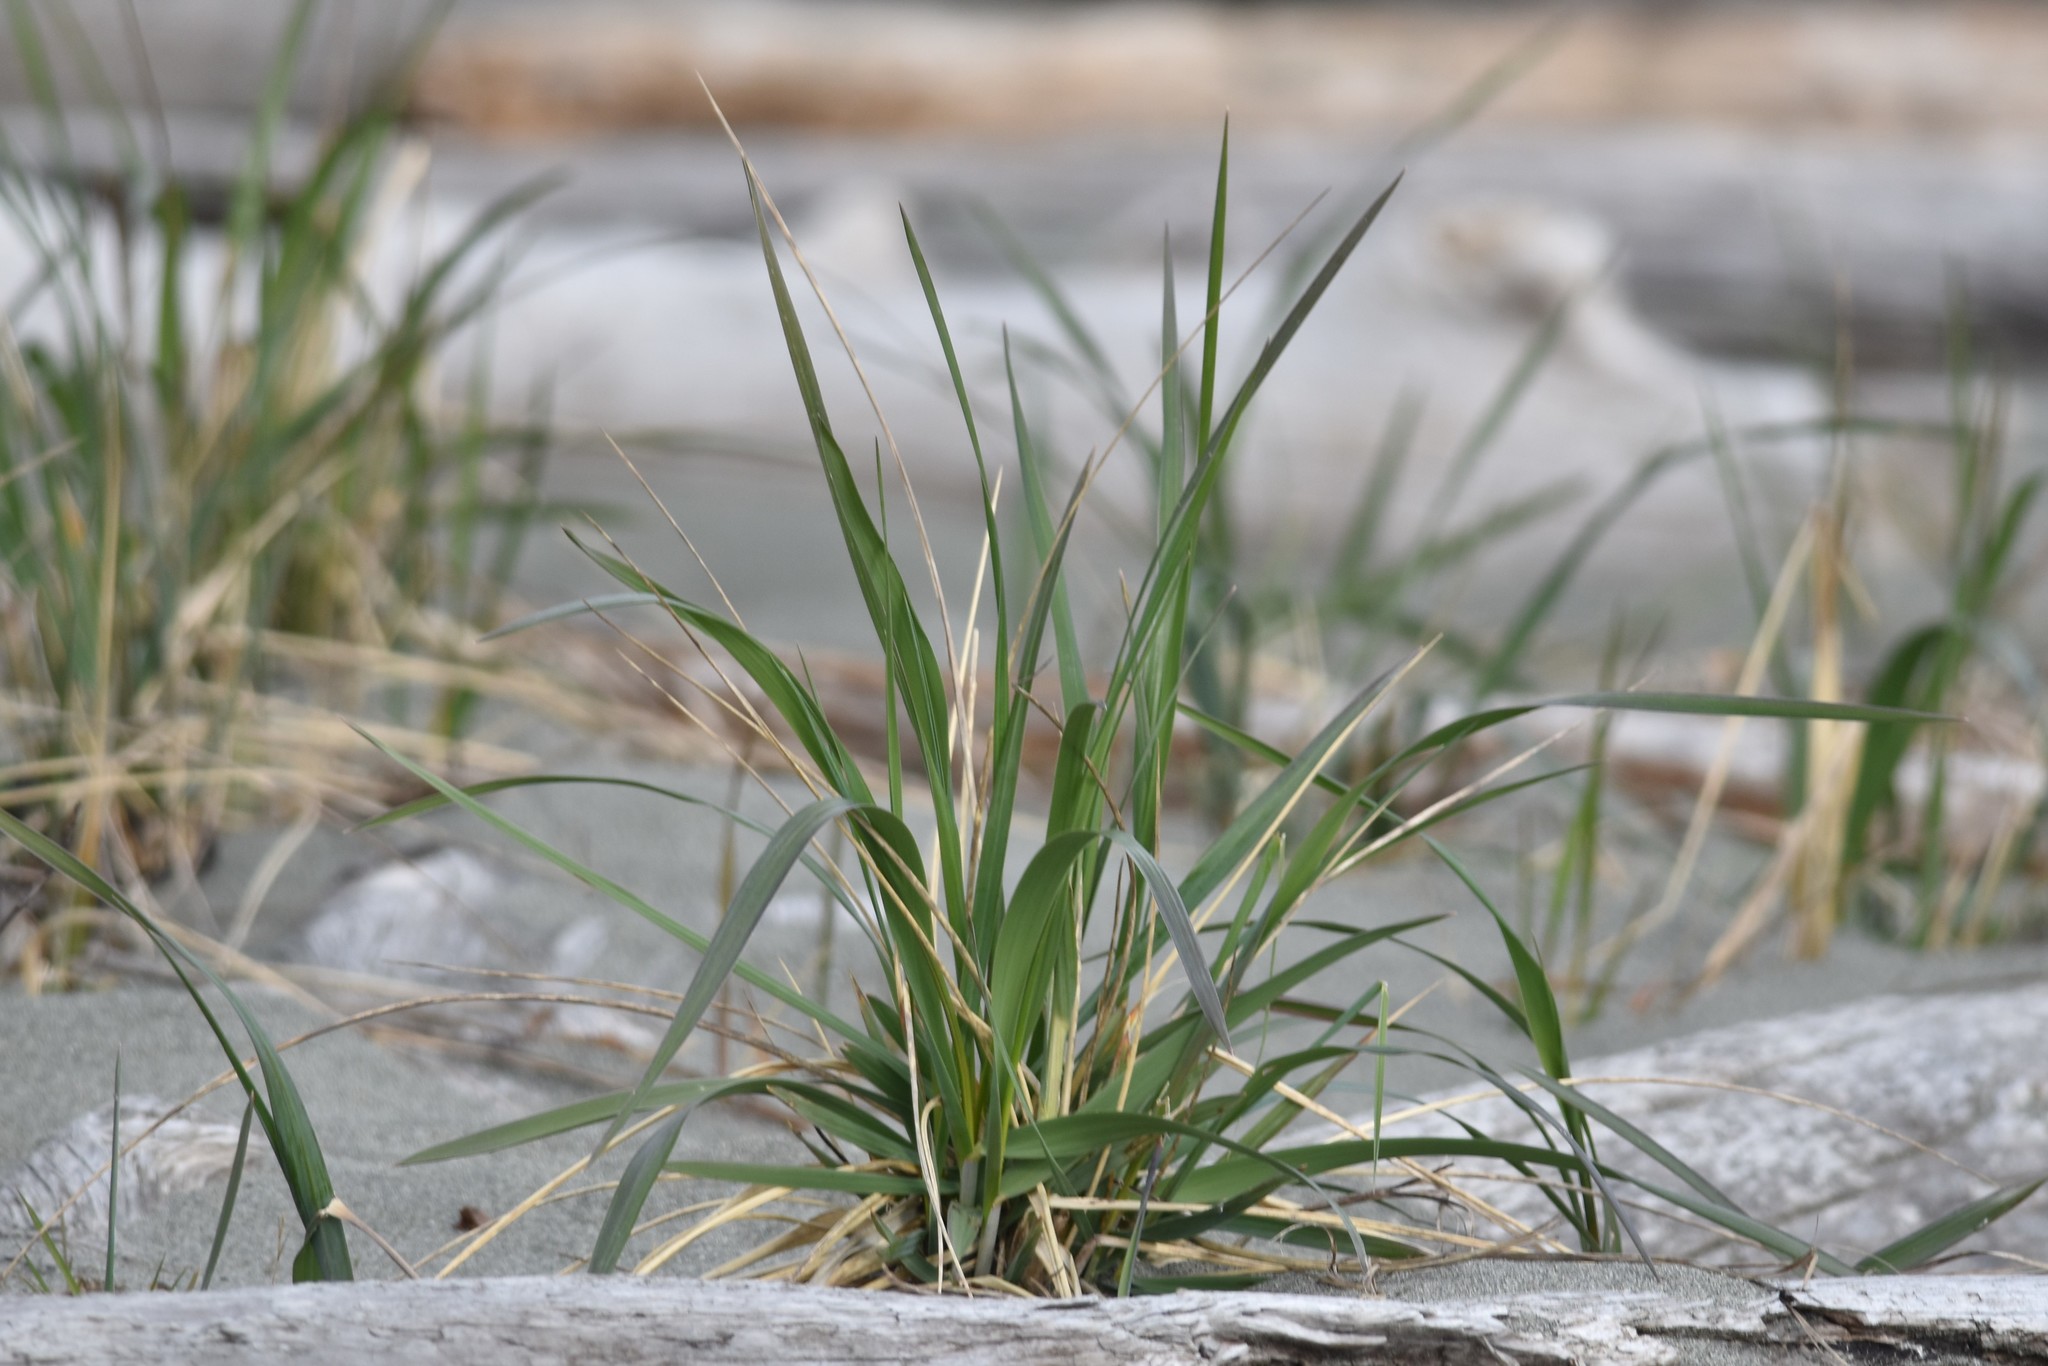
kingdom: Plantae
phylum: Tracheophyta
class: Liliopsida
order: Poales
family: Poaceae
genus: Leymus
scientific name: Leymus mollis
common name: American dune grass
